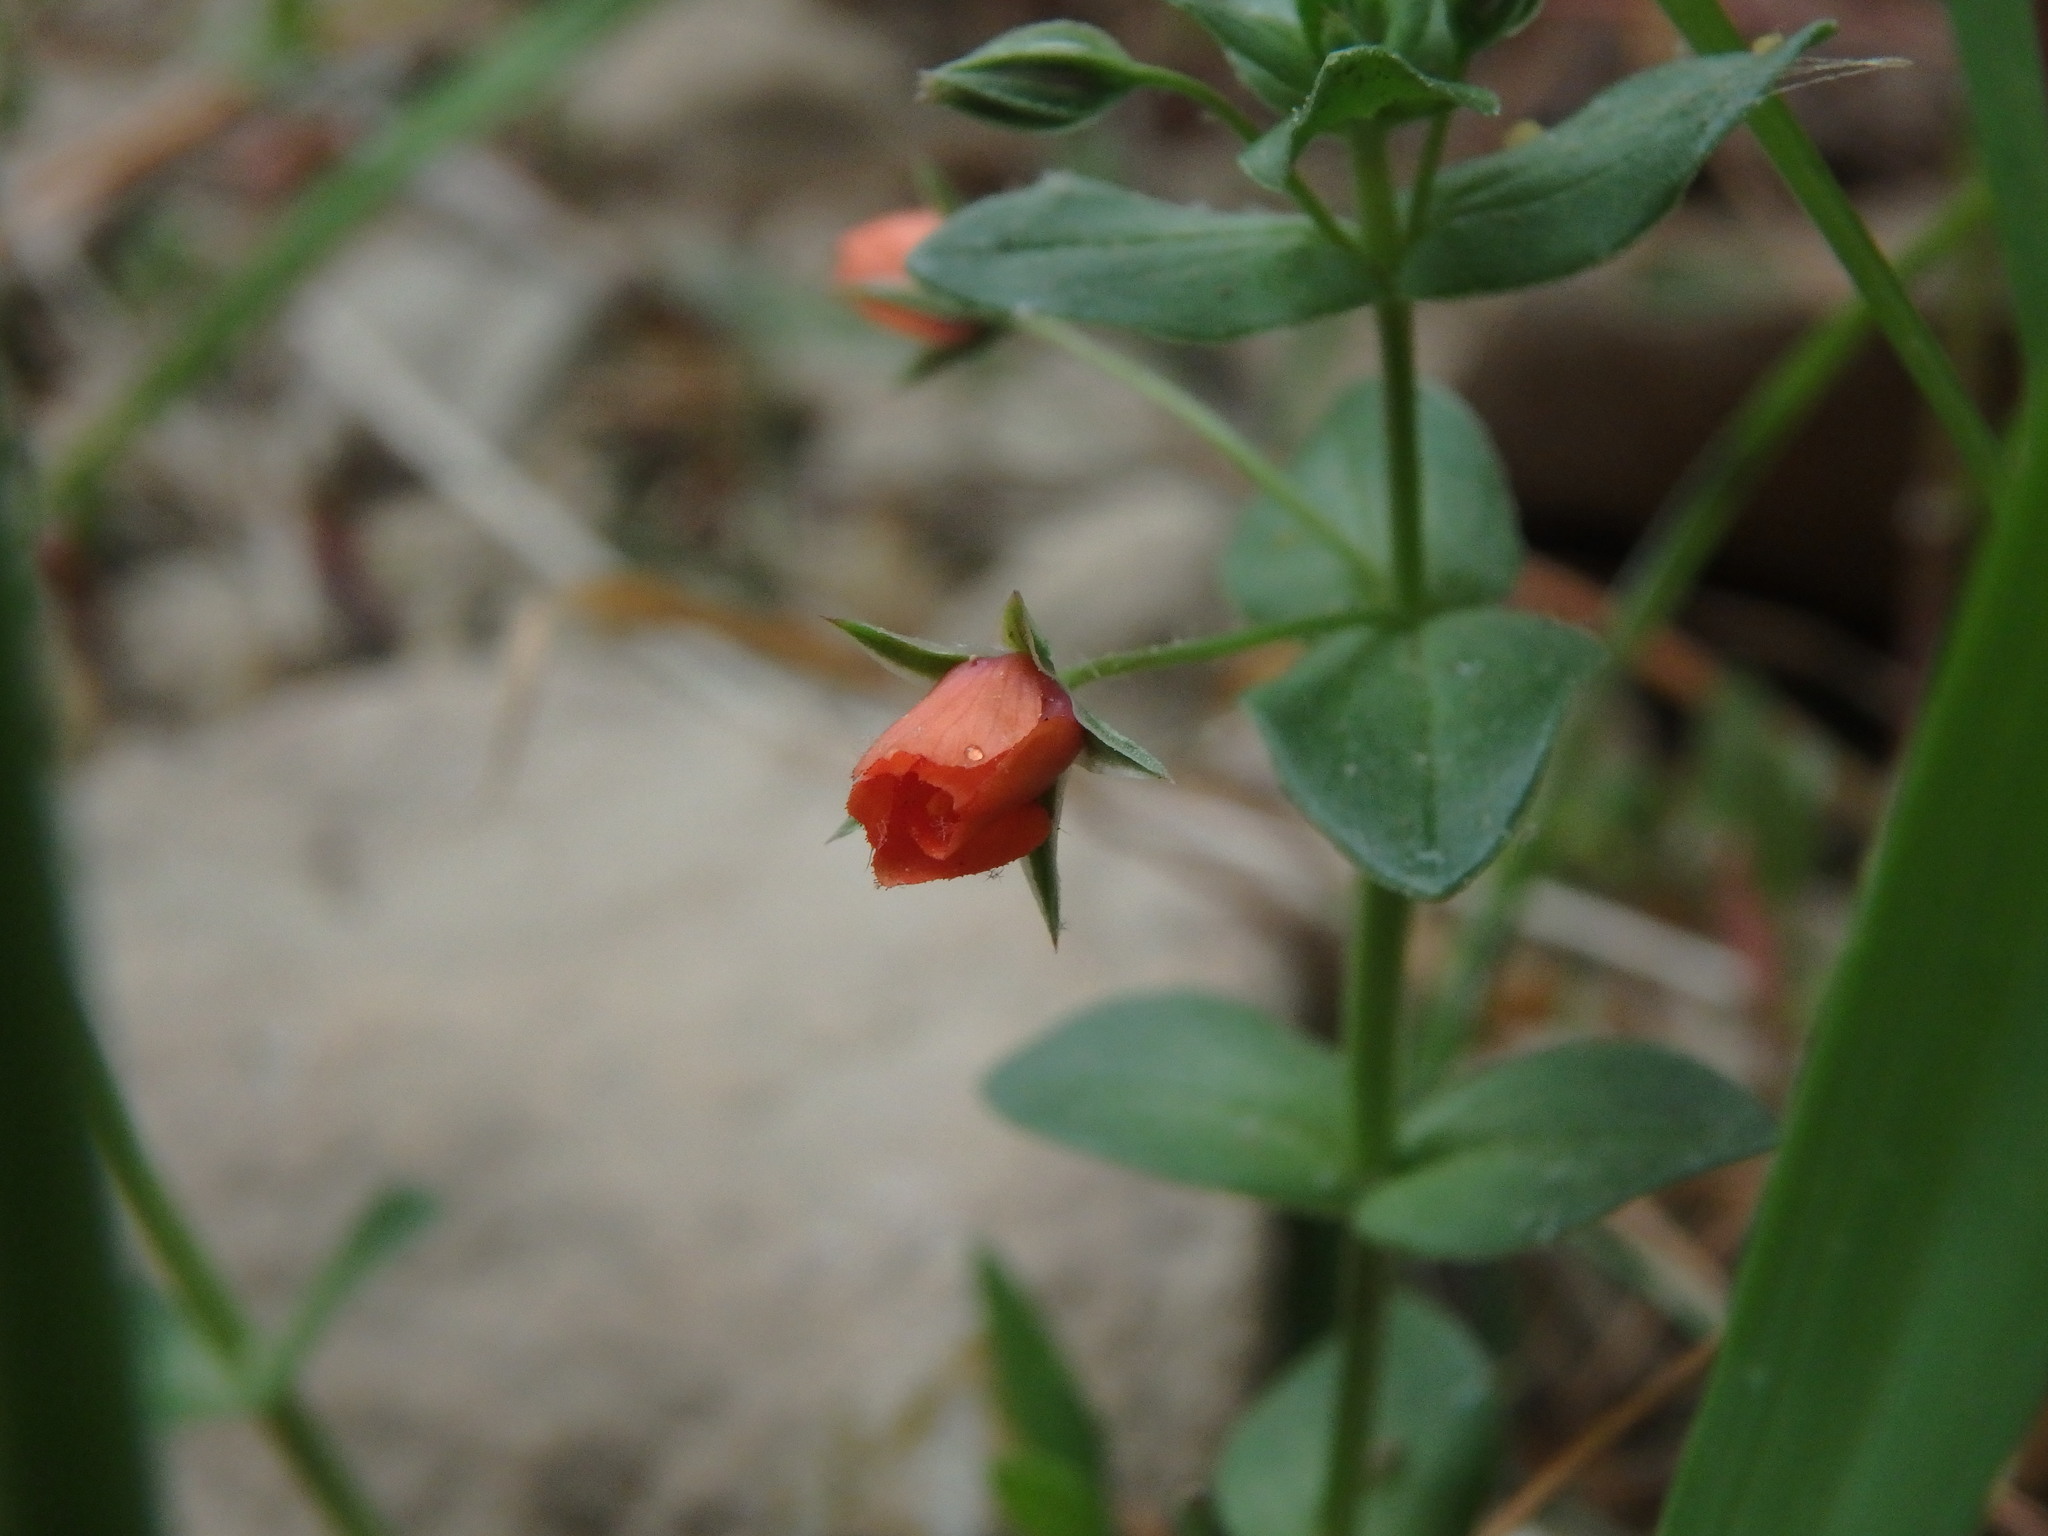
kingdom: Plantae
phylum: Tracheophyta
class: Magnoliopsida
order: Ericales
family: Primulaceae
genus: Lysimachia
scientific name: Lysimachia arvensis
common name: Scarlet pimpernel
